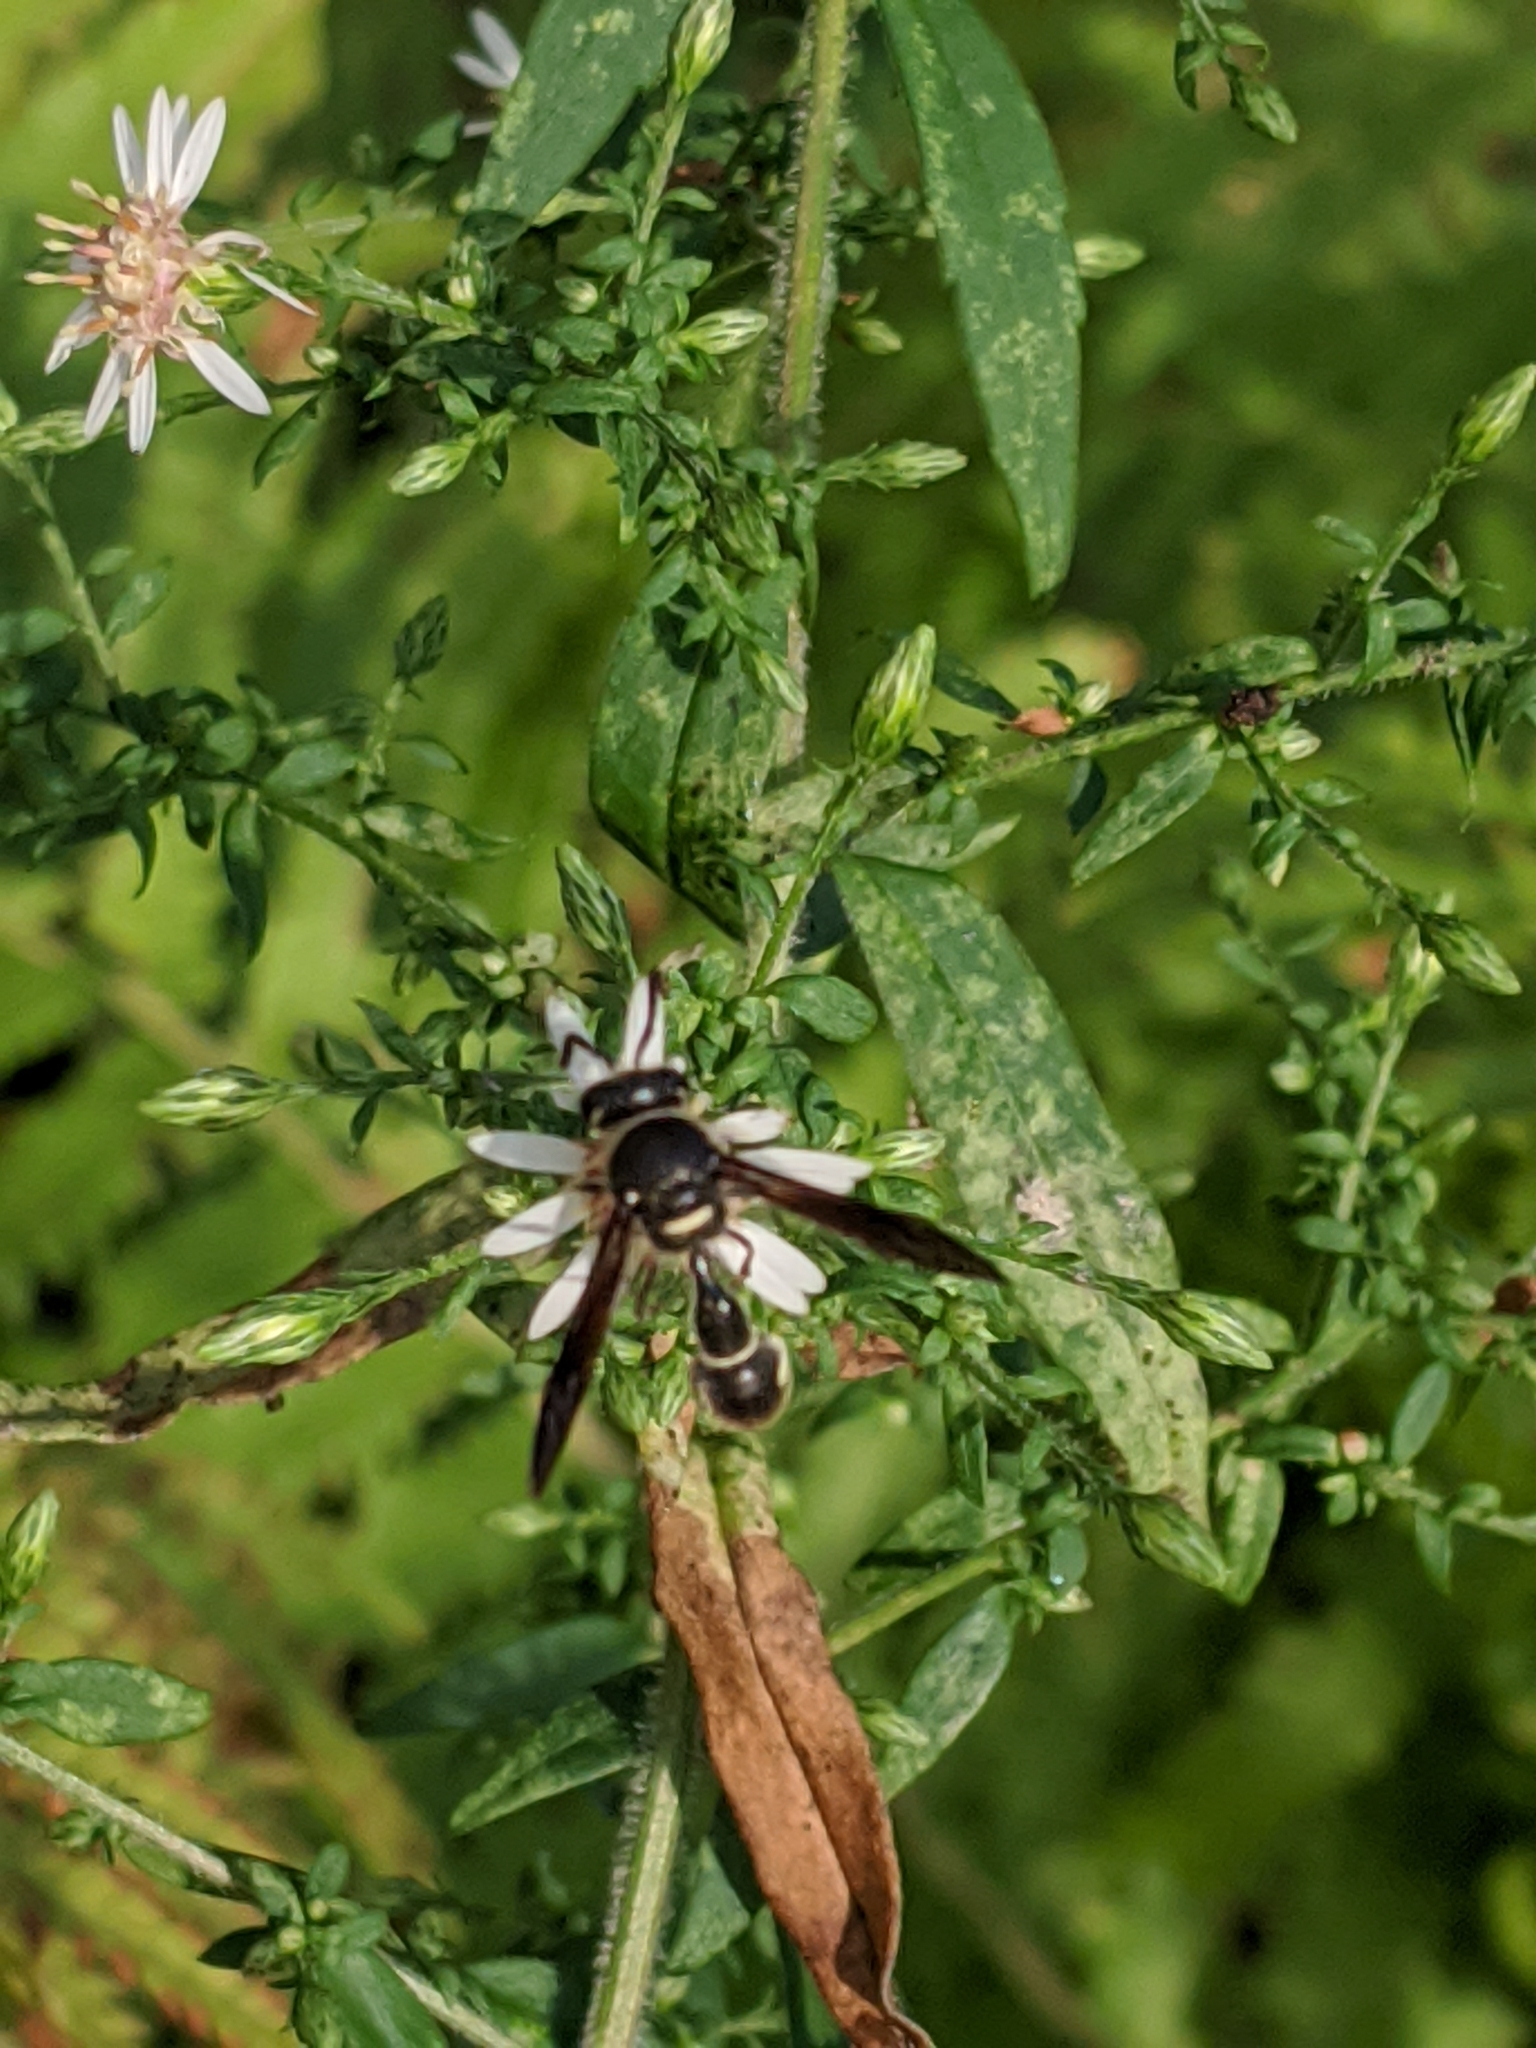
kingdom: Animalia
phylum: Arthropoda
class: Insecta
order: Hymenoptera
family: Vespidae
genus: Eumenes
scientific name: Eumenes fraternus
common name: Fraternal potter wasp
